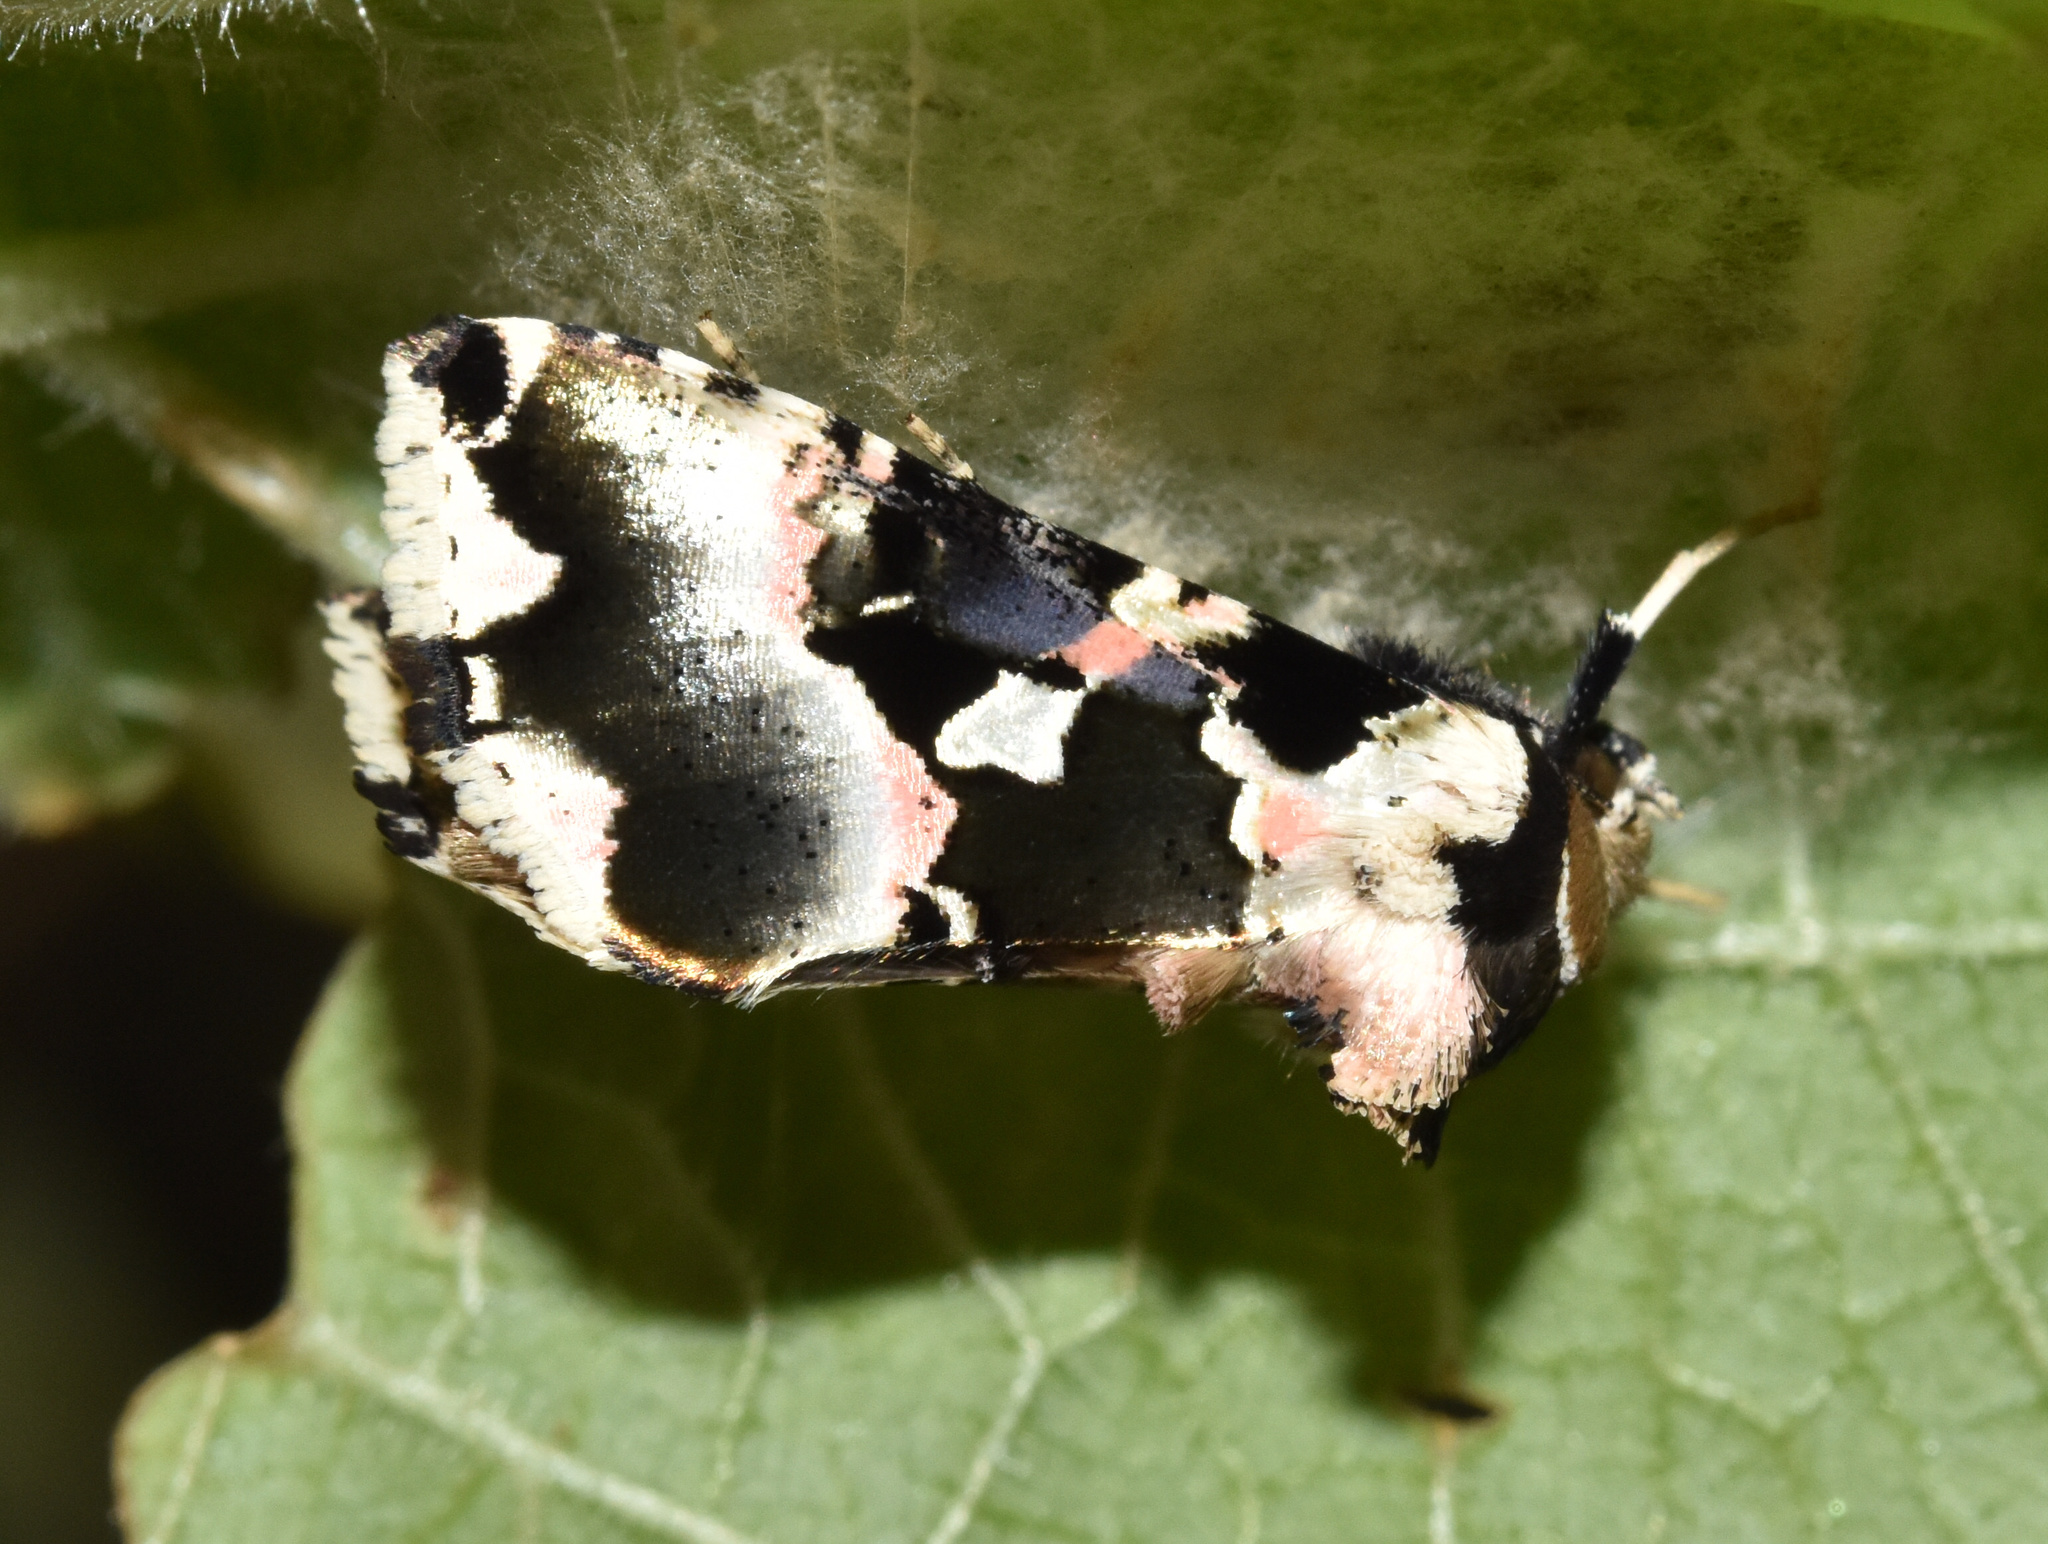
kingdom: Animalia
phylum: Arthropoda
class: Insecta
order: Lepidoptera
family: Noctuidae
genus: Trichoplusia
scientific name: Trichoplusia roseofasciata
